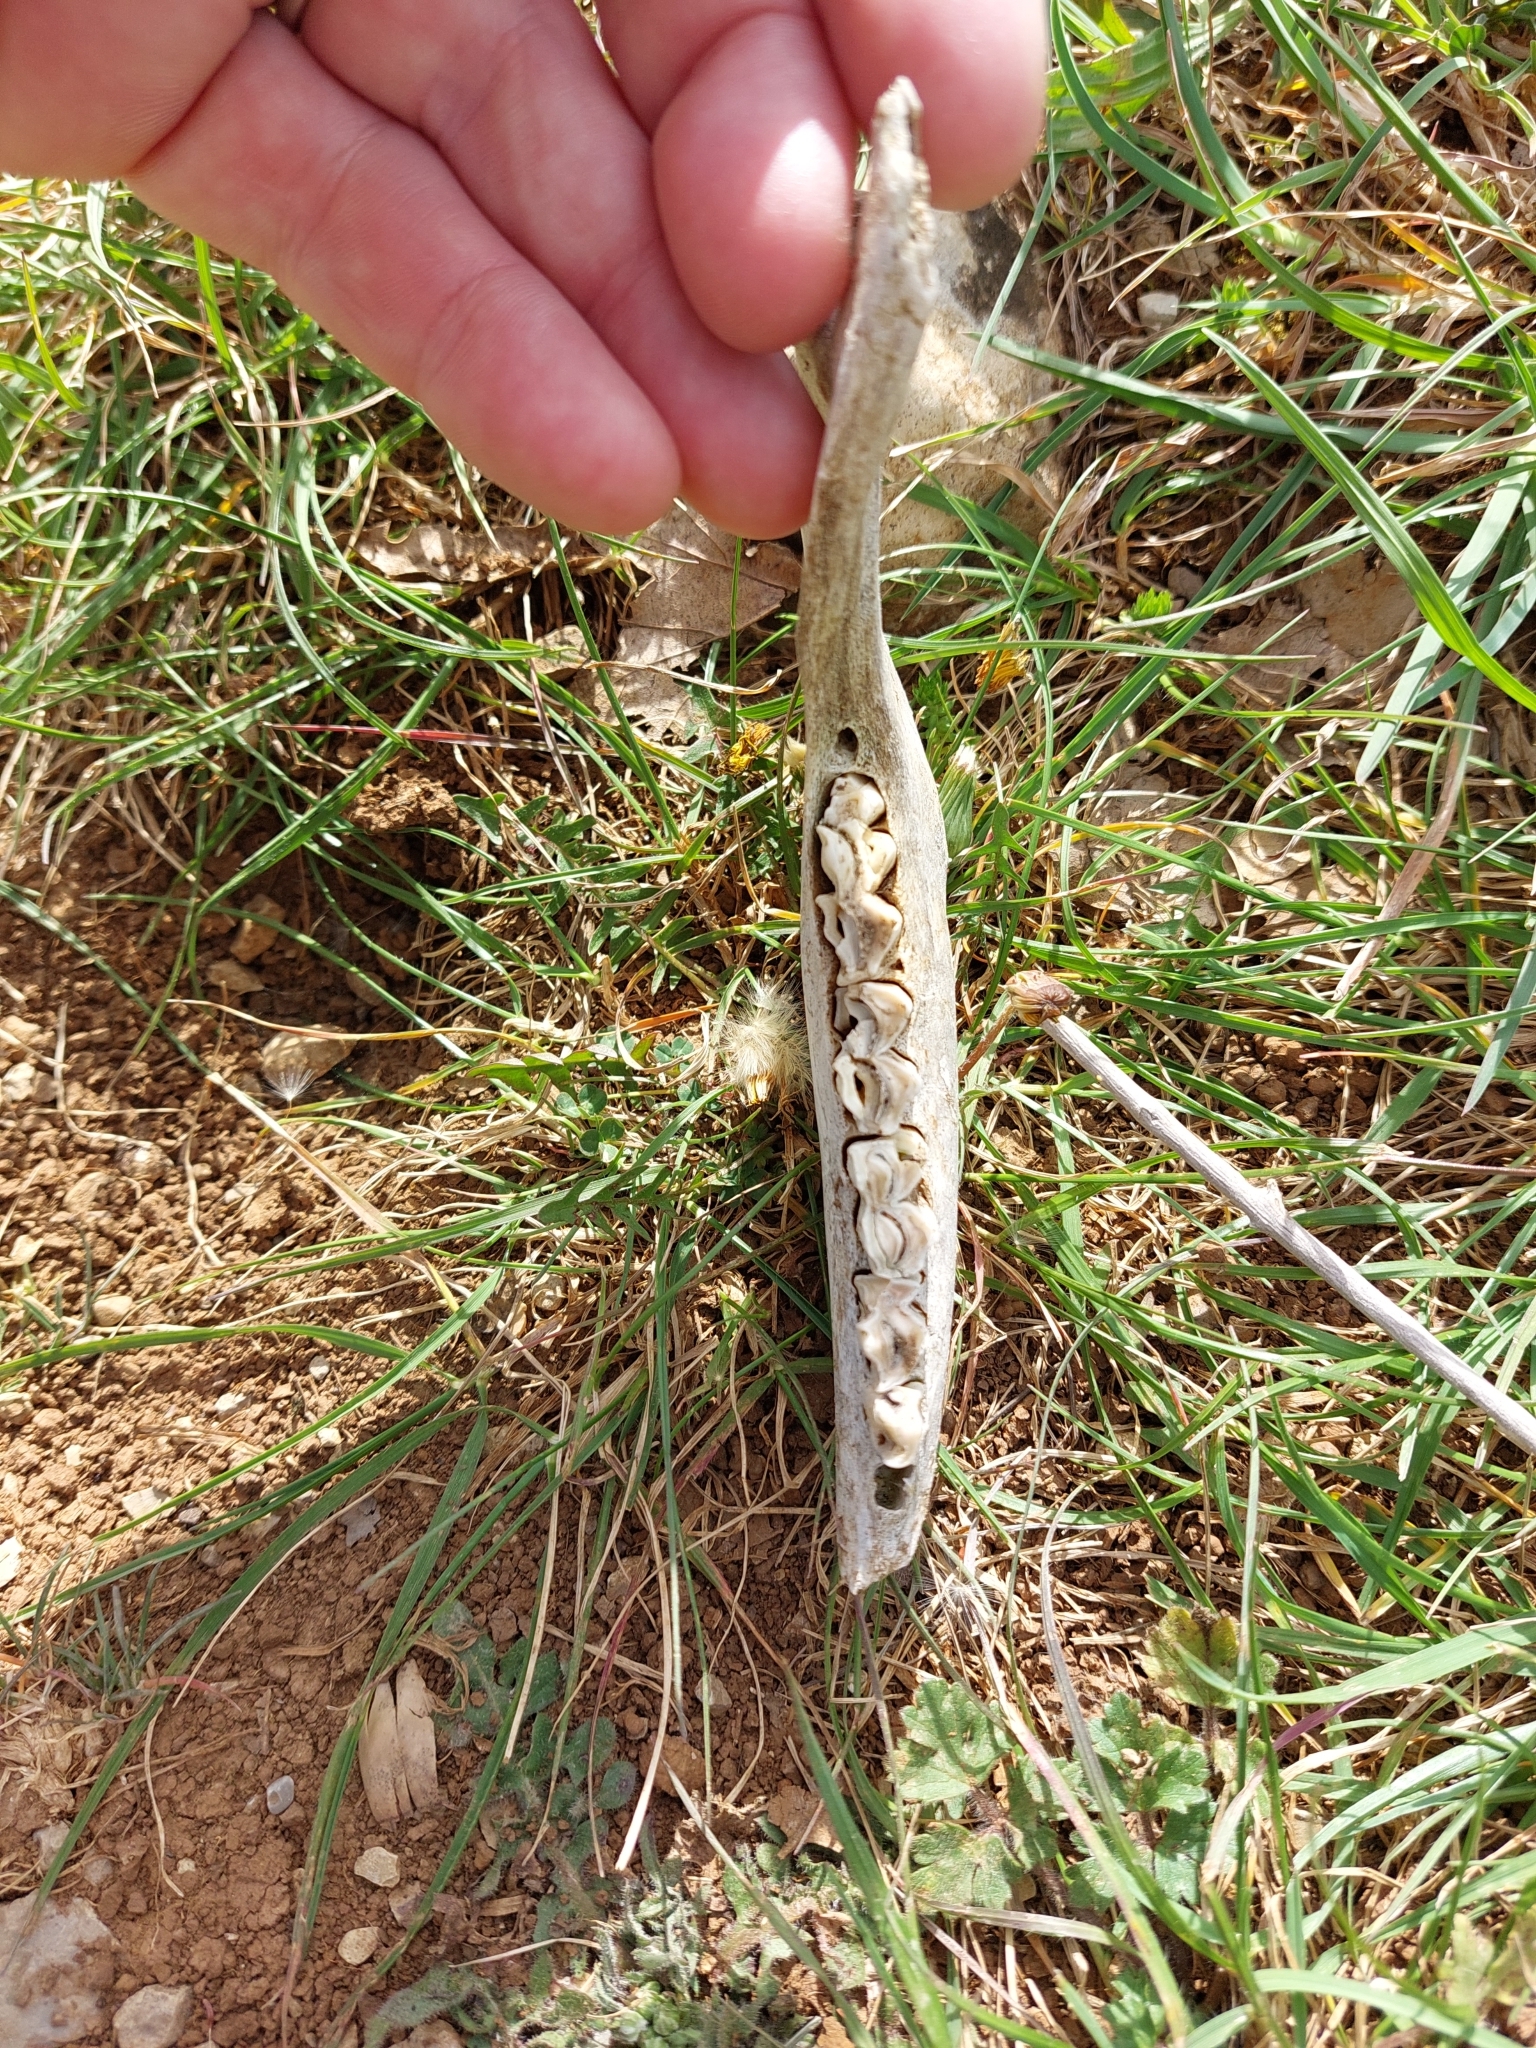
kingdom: Animalia
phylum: Chordata
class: Mammalia
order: Artiodactyla
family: Bovidae
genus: Ovis
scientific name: Ovis aries
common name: Domestic sheep
